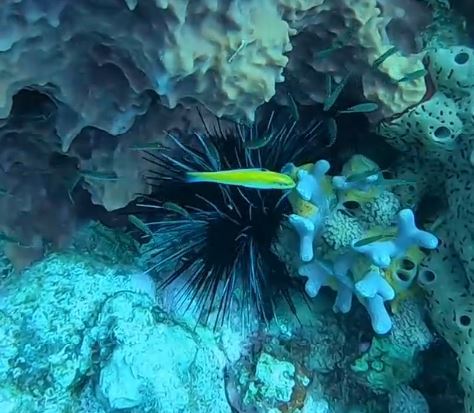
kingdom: Animalia
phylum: Chordata
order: Perciformes
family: Labridae
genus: Thalassoma
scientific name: Thalassoma bifasciatum
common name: Bluehead wrasse
